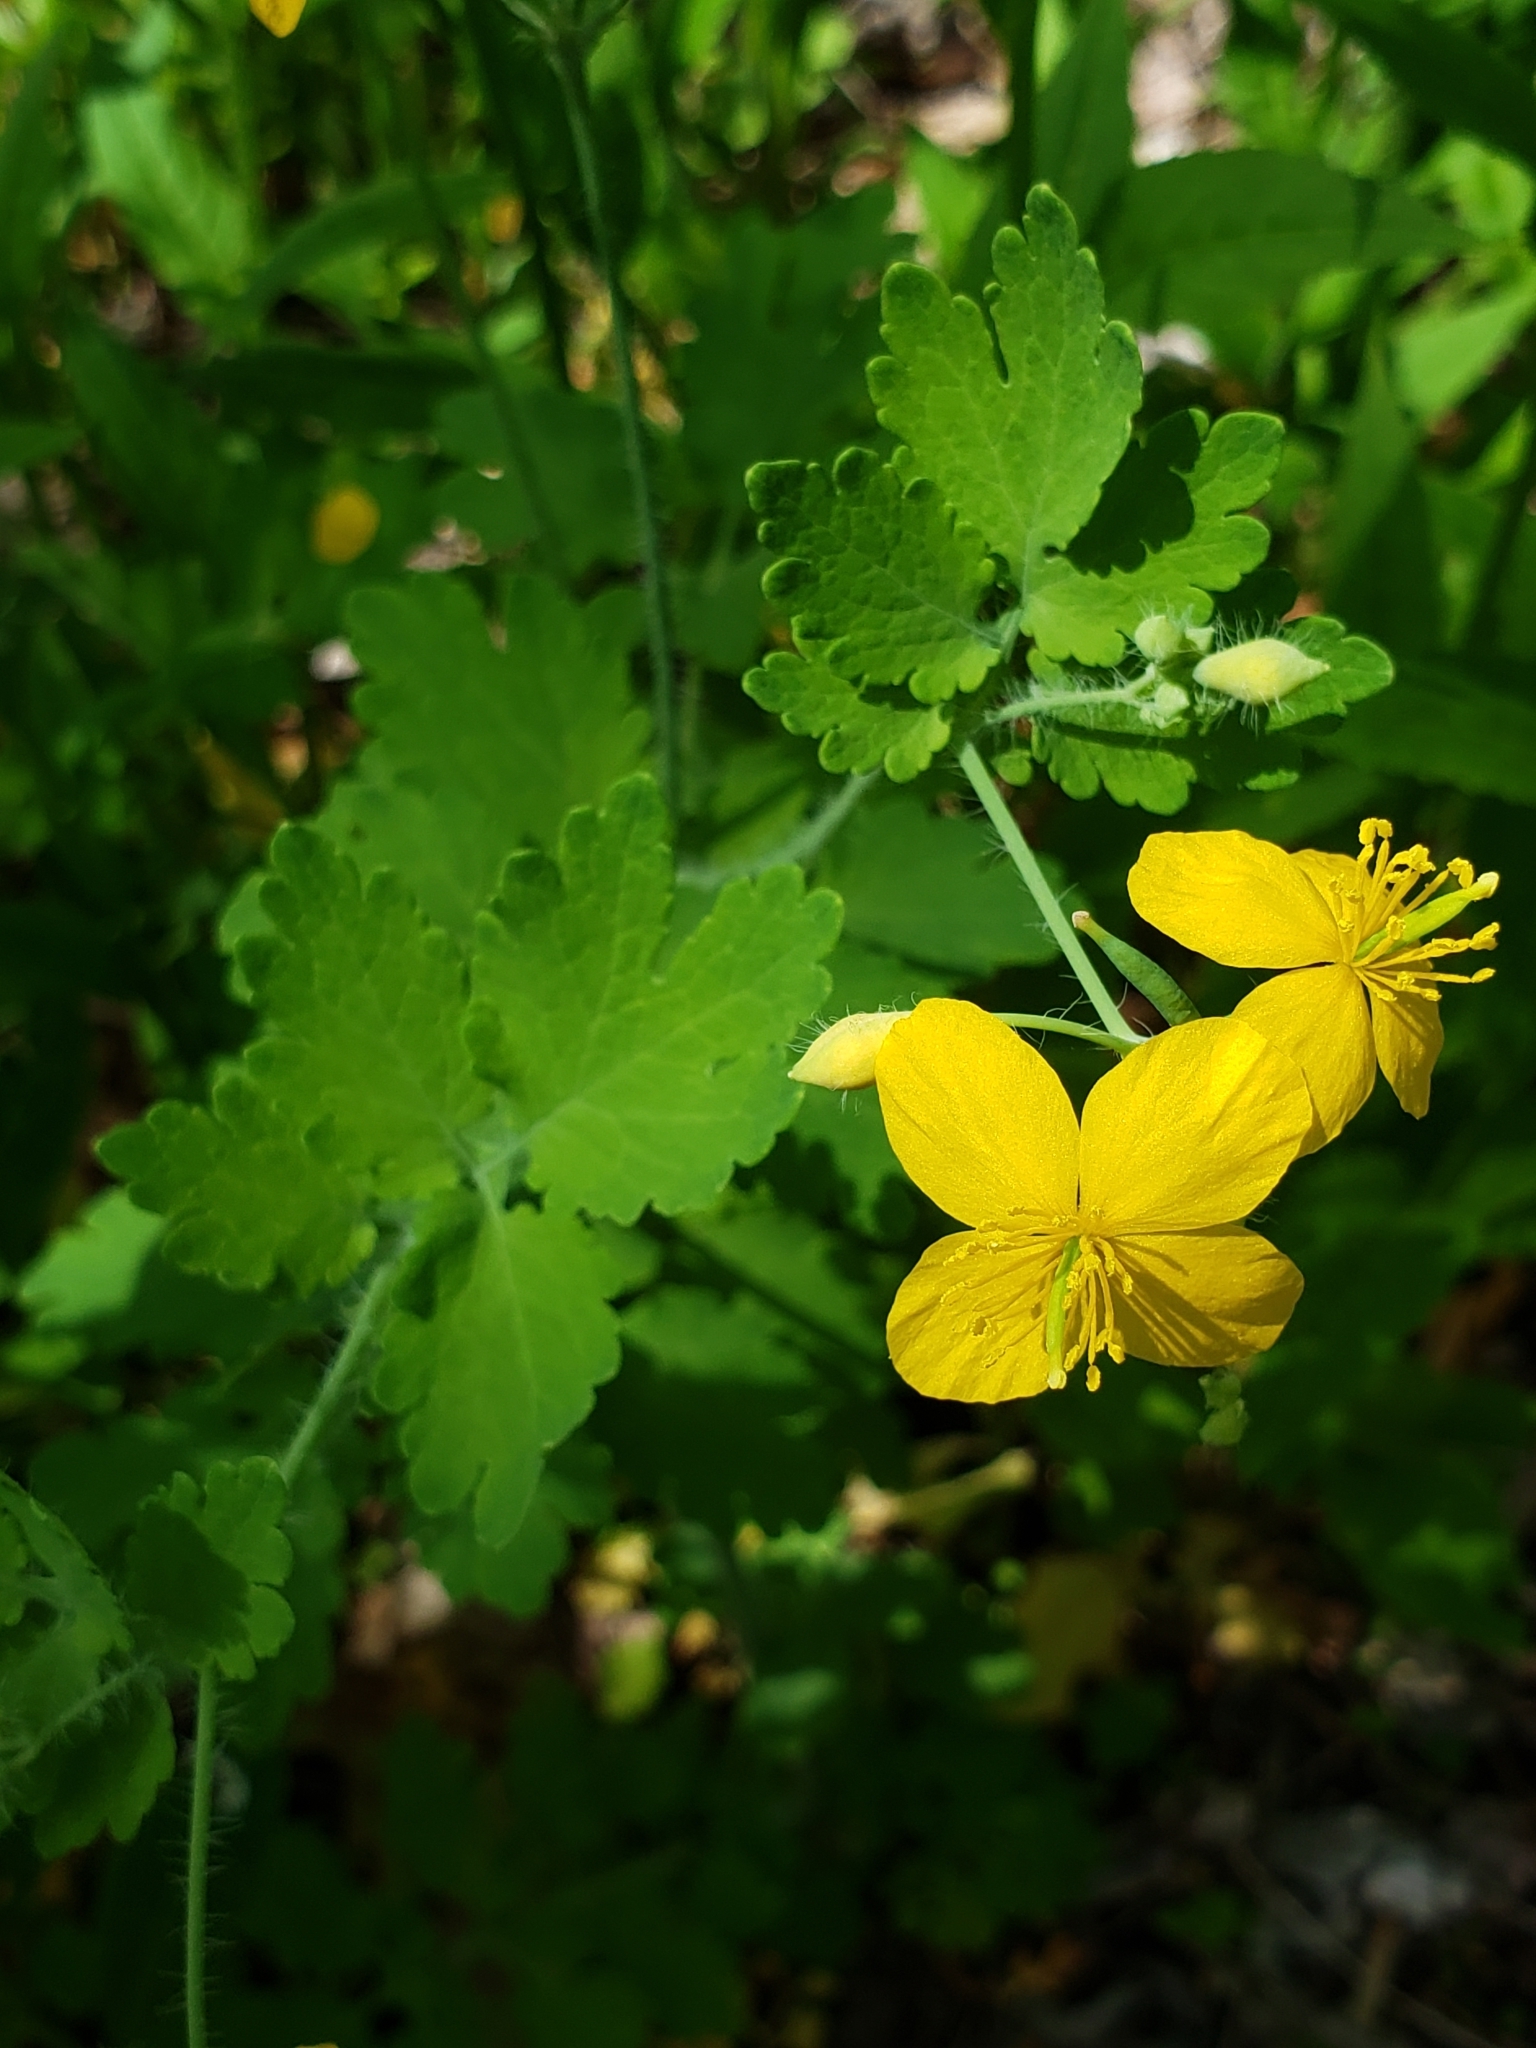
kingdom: Plantae
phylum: Tracheophyta
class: Magnoliopsida
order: Ranunculales
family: Papaveraceae
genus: Chelidonium
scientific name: Chelidonium majus
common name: Greater celandine
